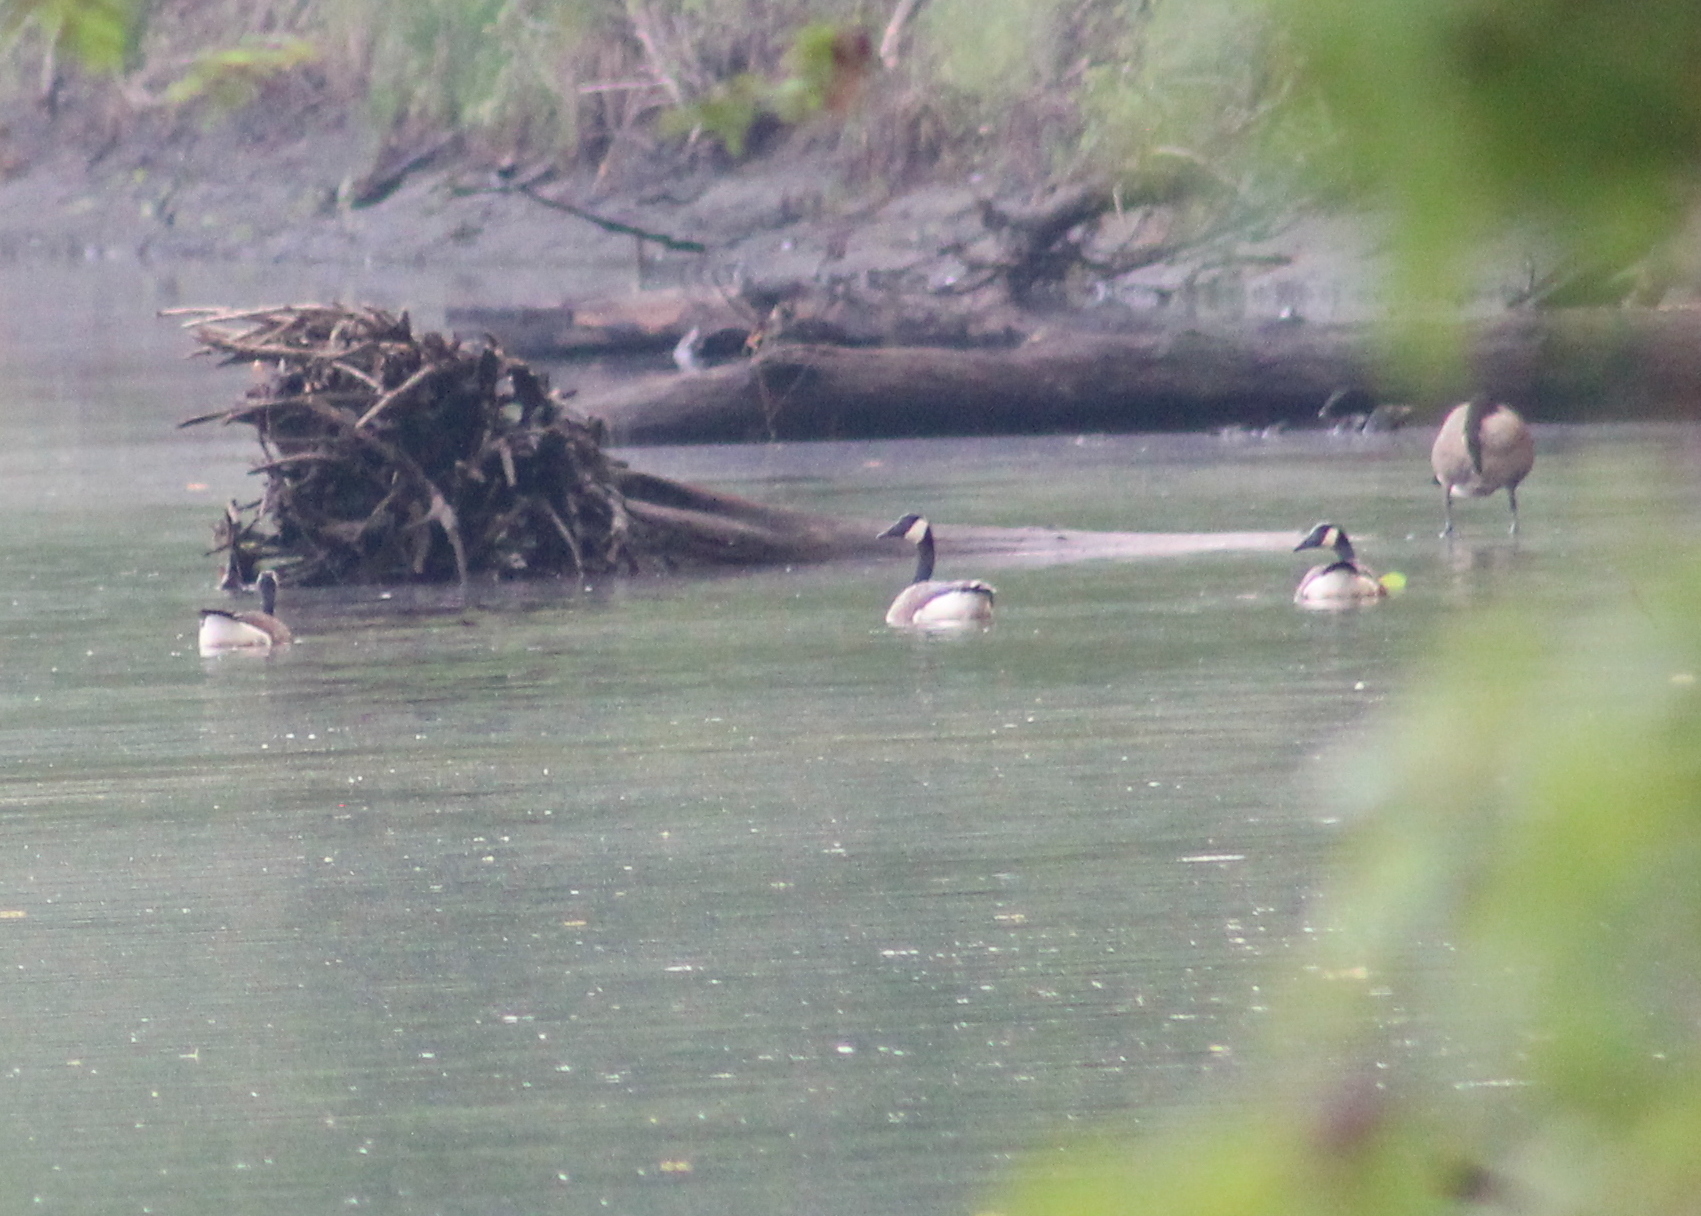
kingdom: Animalia
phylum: Chordata
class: Aves
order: Anseriformes
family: Anatidae
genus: Branta
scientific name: Branta canadensis
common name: Canada goose
